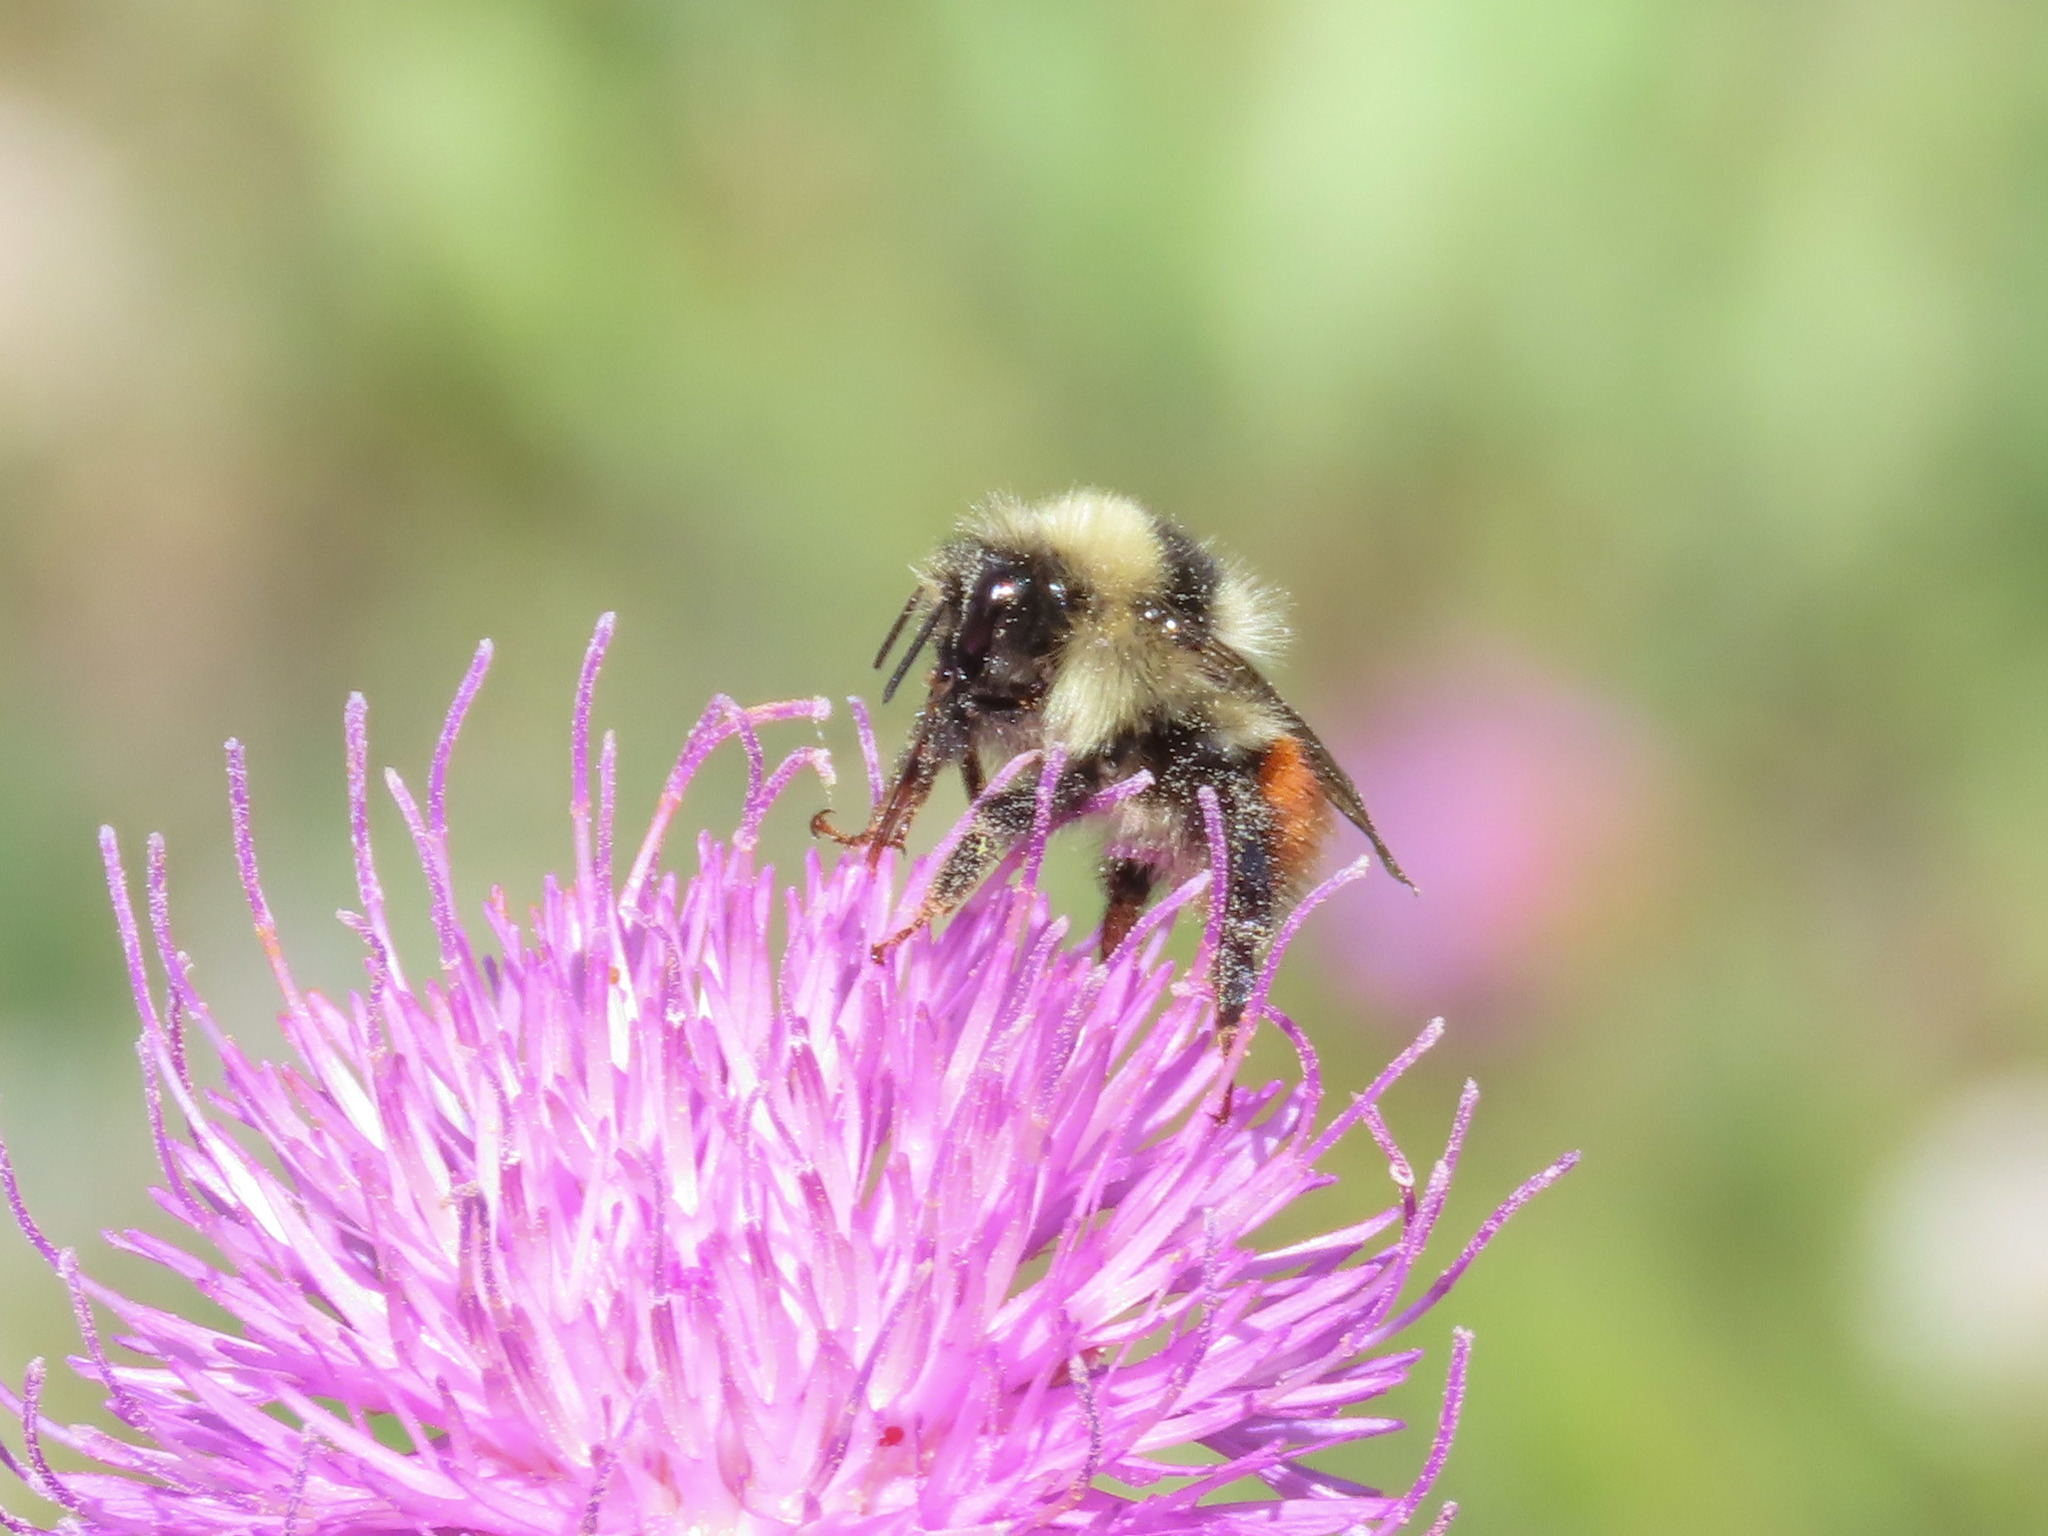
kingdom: Animalia
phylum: Arthropoda
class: Insecta
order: Hymenoptera
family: Apidae
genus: Bombus
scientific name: Bombus monticola
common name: Bilberry humble-bee
